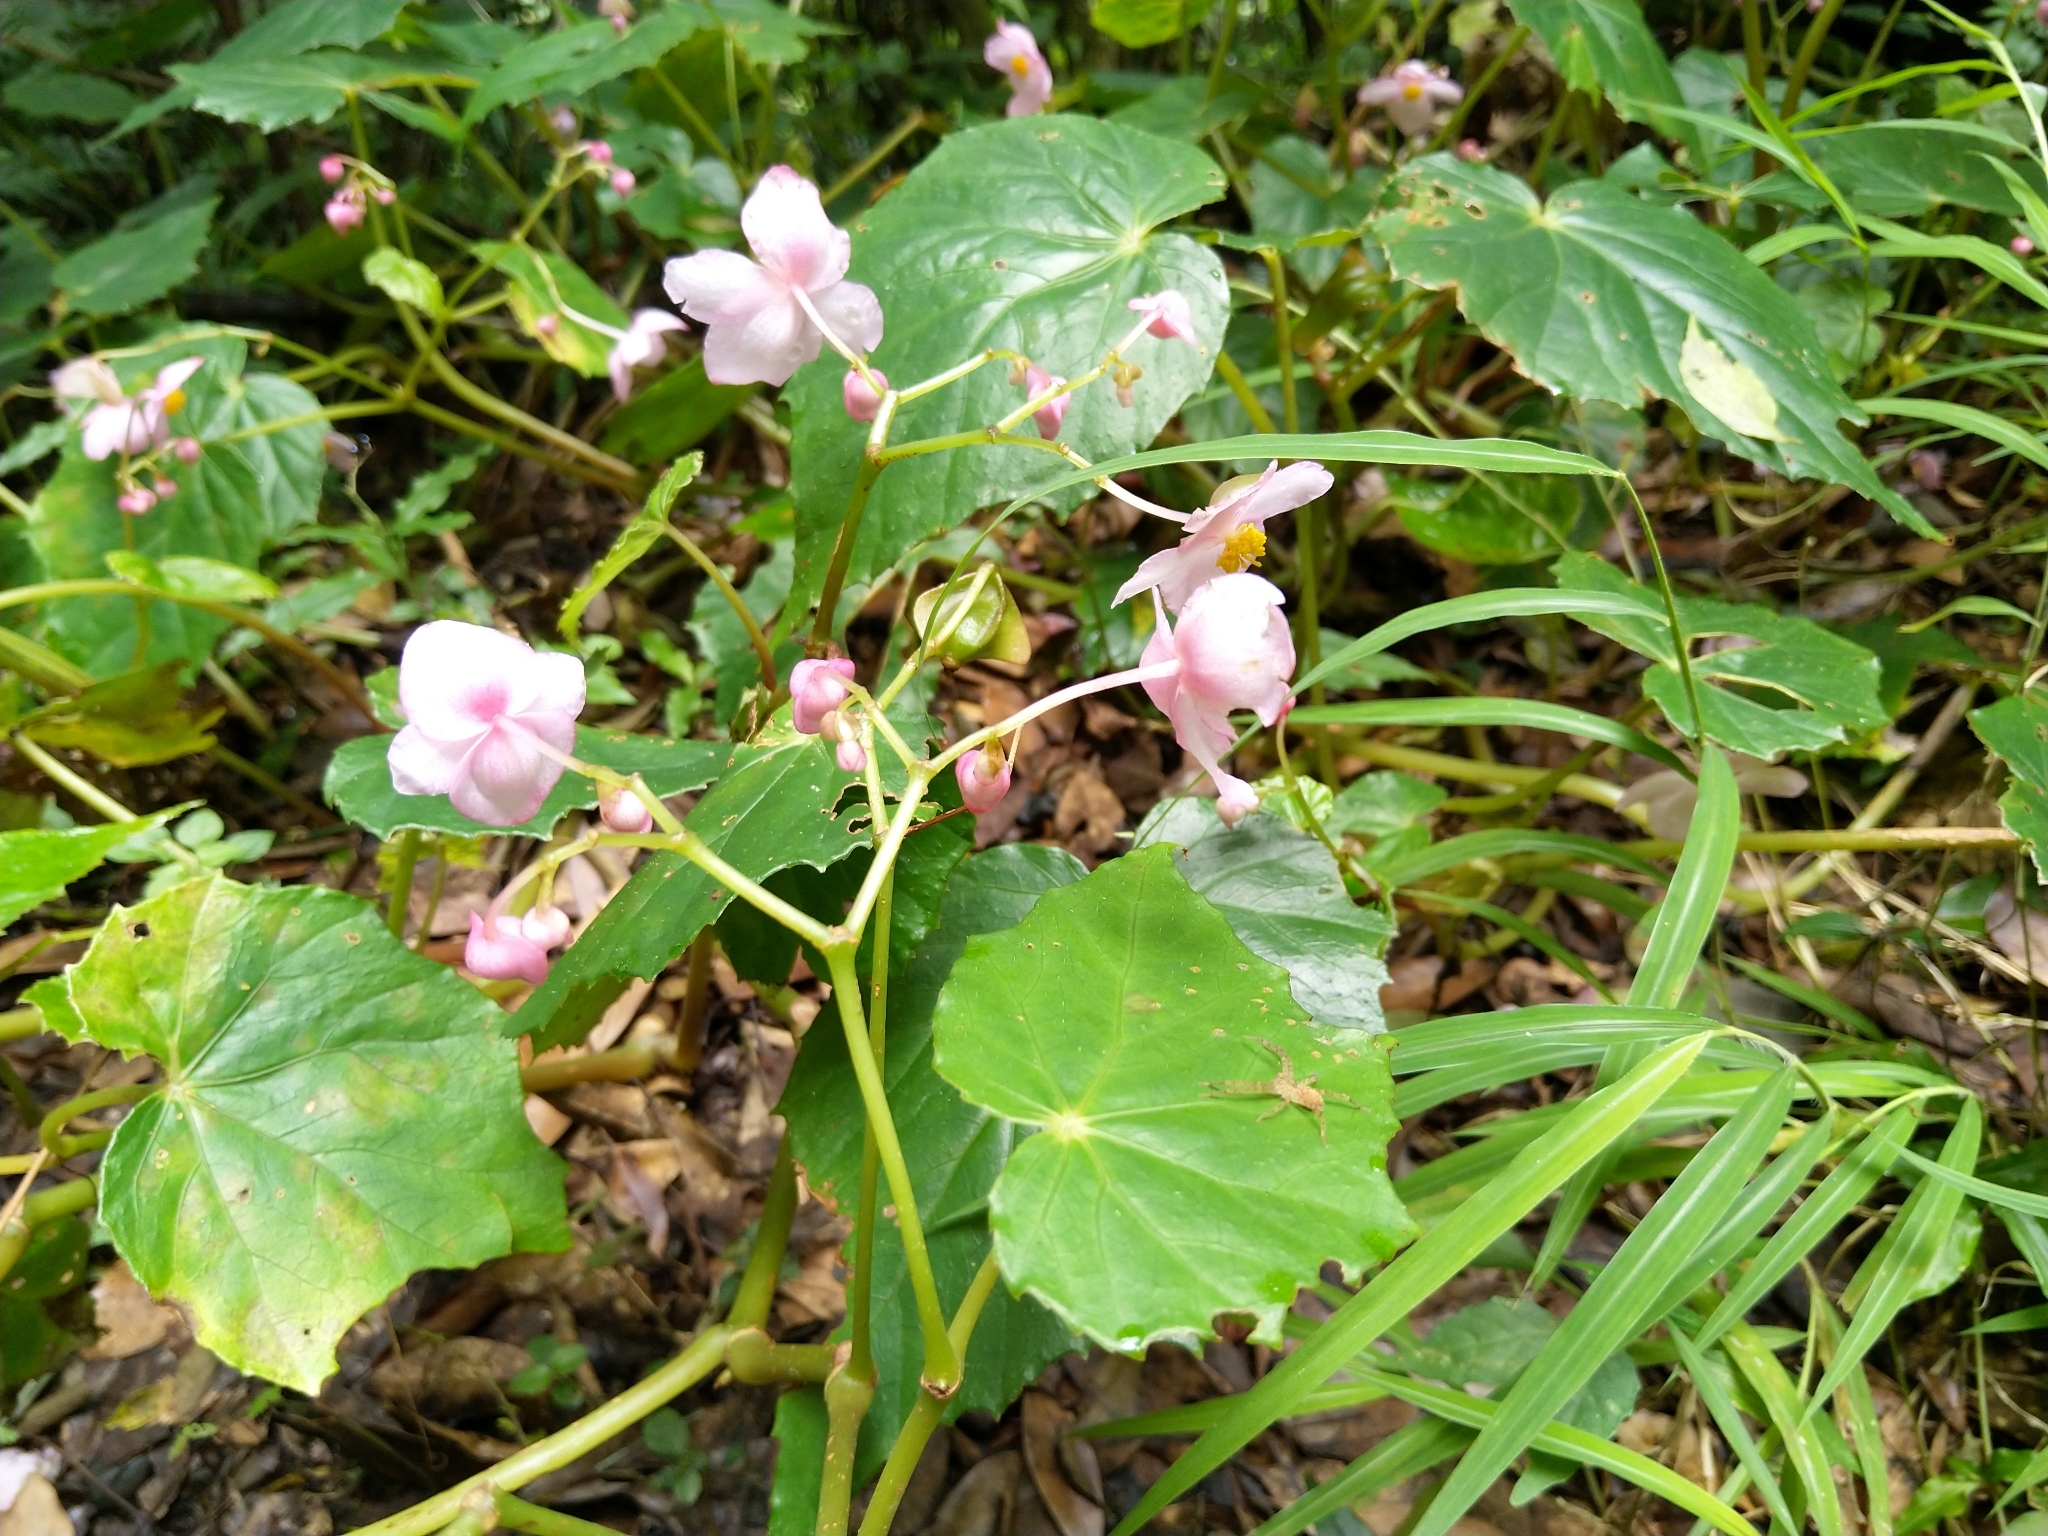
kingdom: Plantae
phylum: Tracheophyta
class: Magnoliopsida
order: Cucurbitales
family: Begoniaceae
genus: Begonia
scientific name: Begonia formosana
